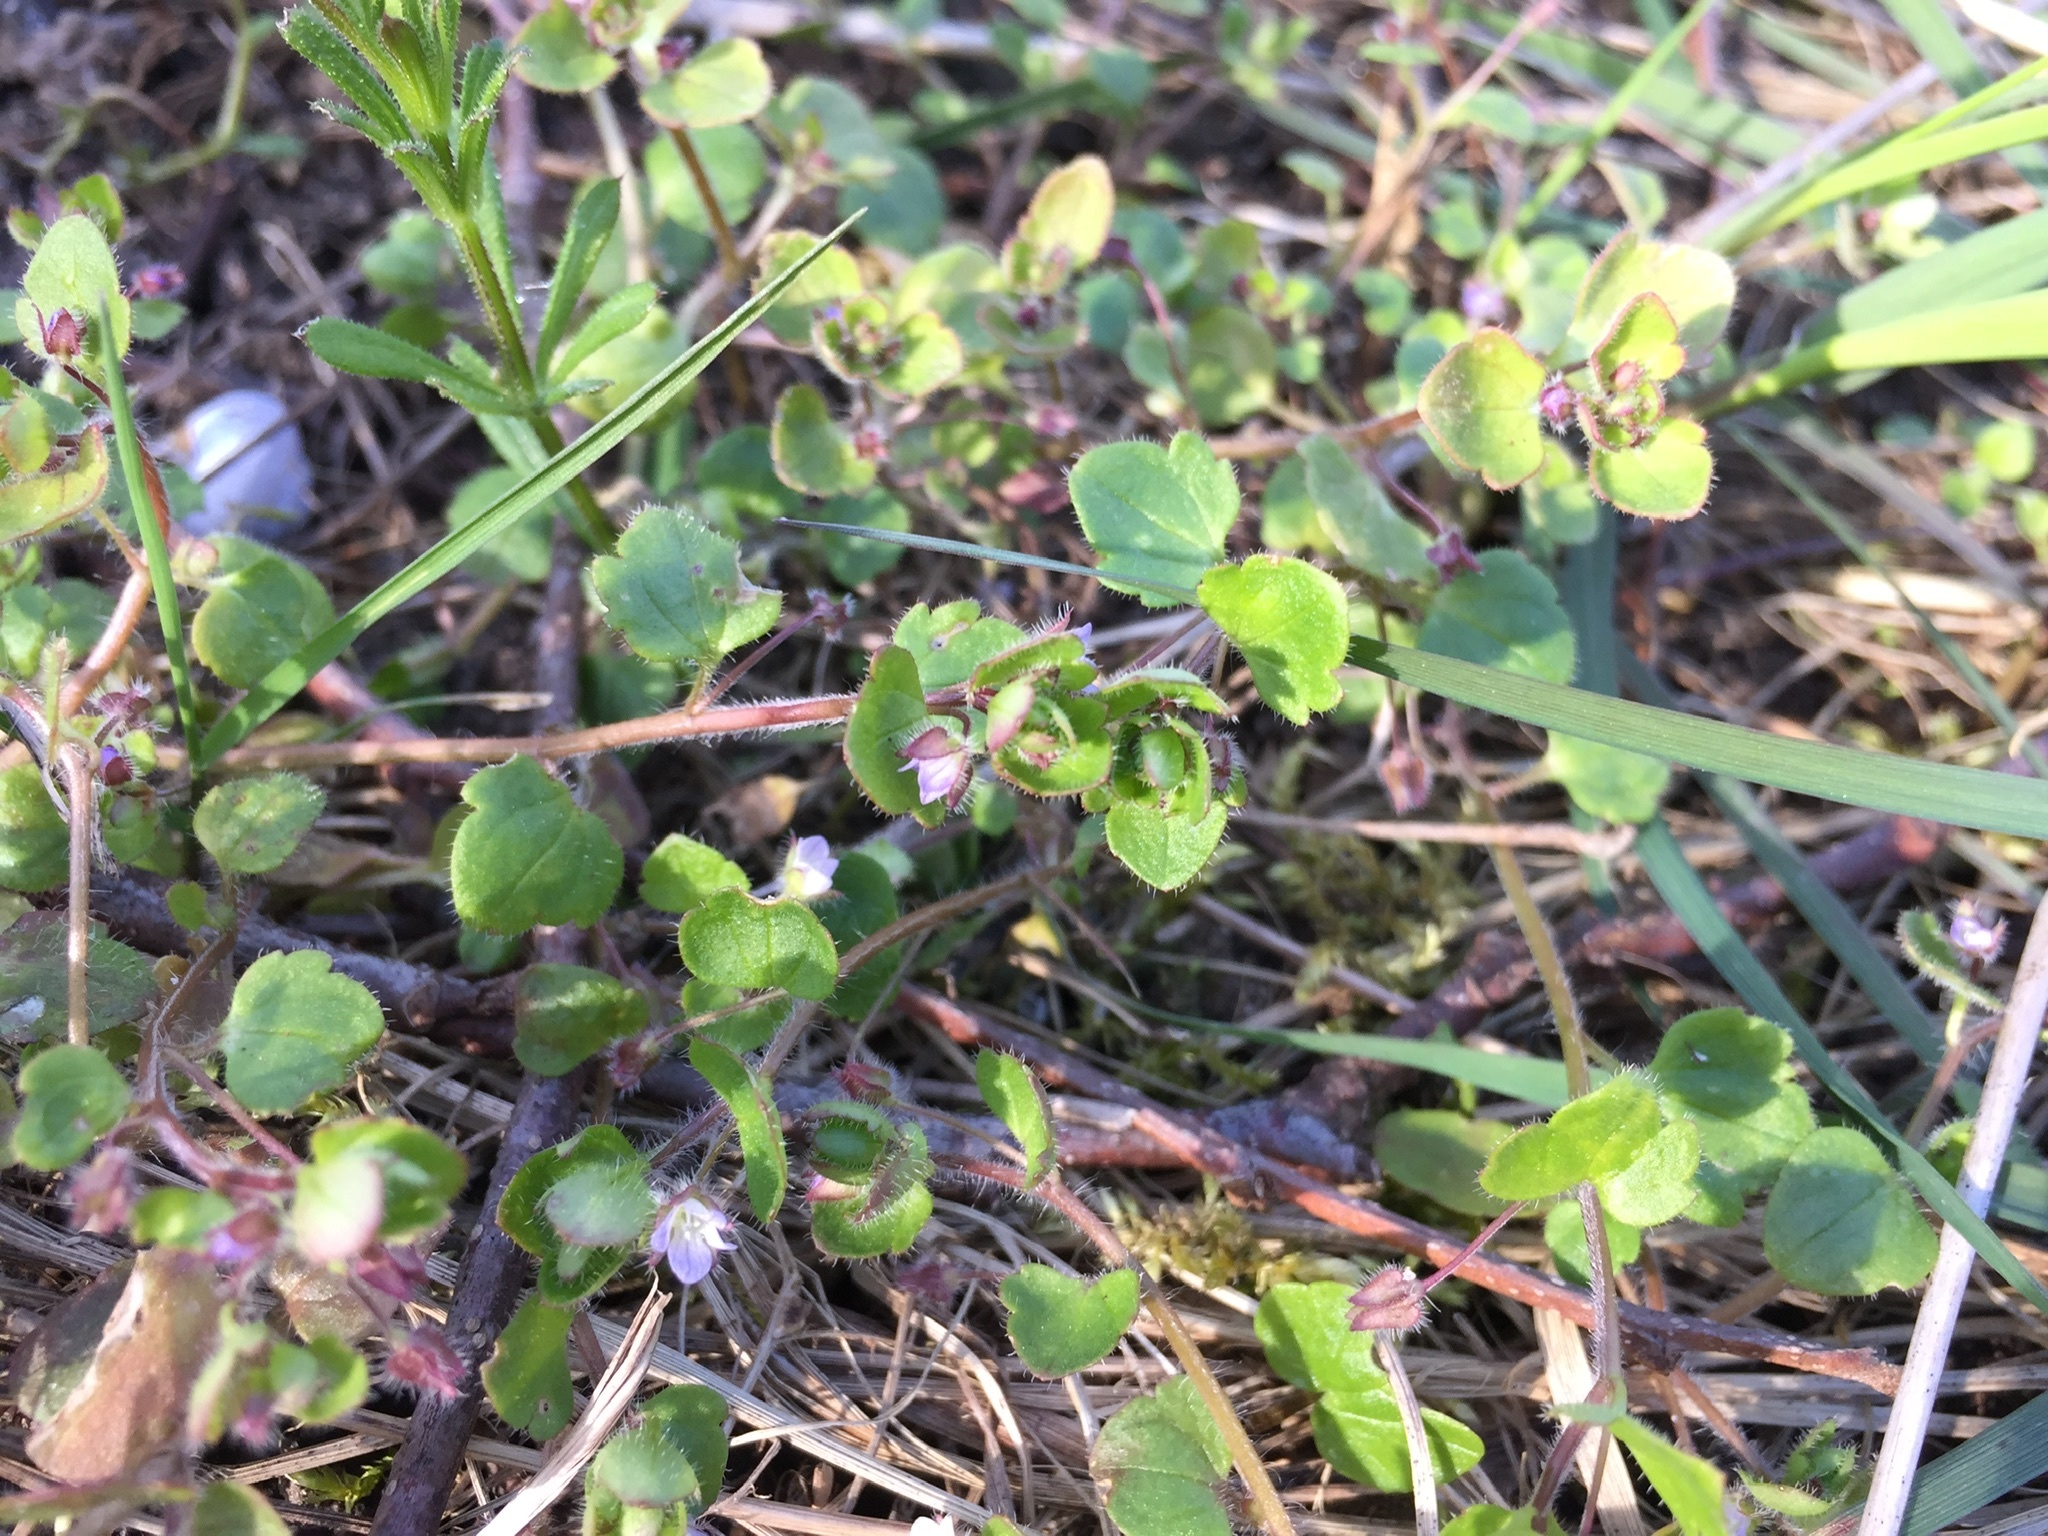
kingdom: Plantae
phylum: Tracheophyta
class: Magnoliopsida
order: Lamiales
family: Plantaginaceae
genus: Veronica
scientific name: Veronica sublobata
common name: False ivy-leaved speedwell
